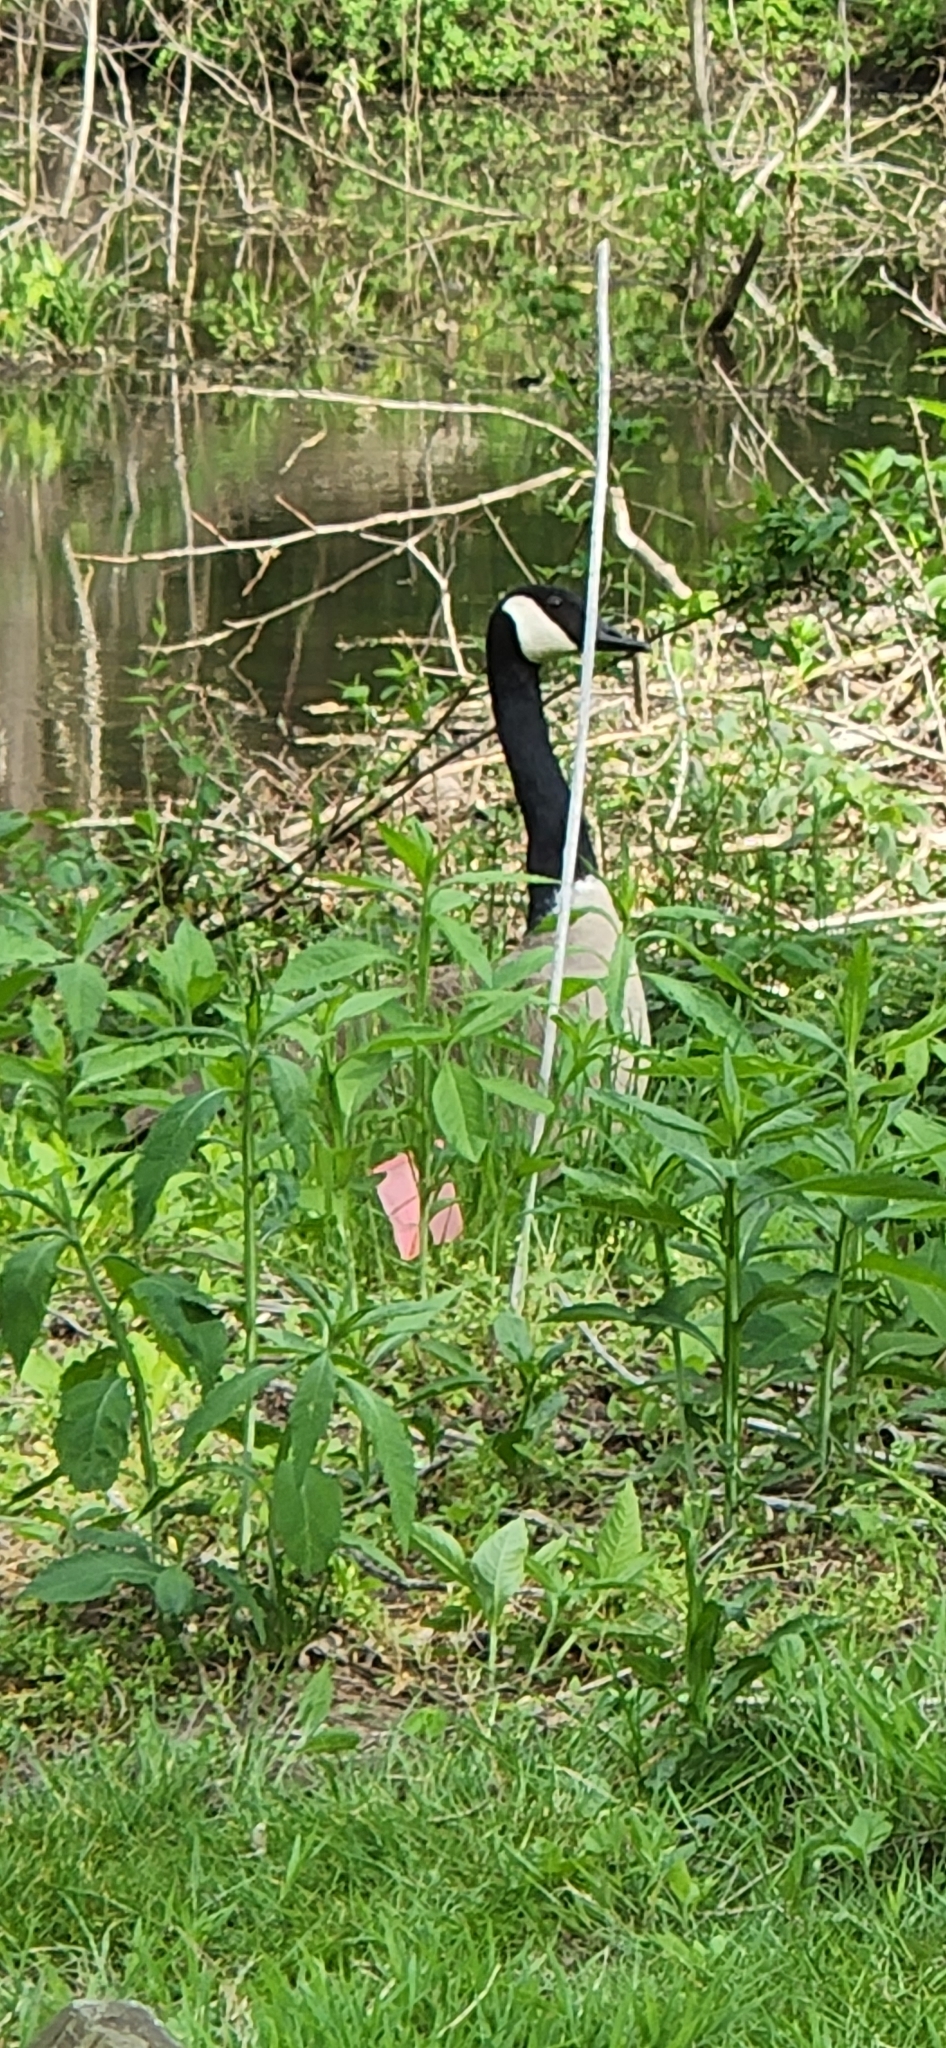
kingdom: Animalia
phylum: Chordata
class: Aves
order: Anseriformes
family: Anatidae
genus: Branta
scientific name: Branta canadensis
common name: Canada goose
